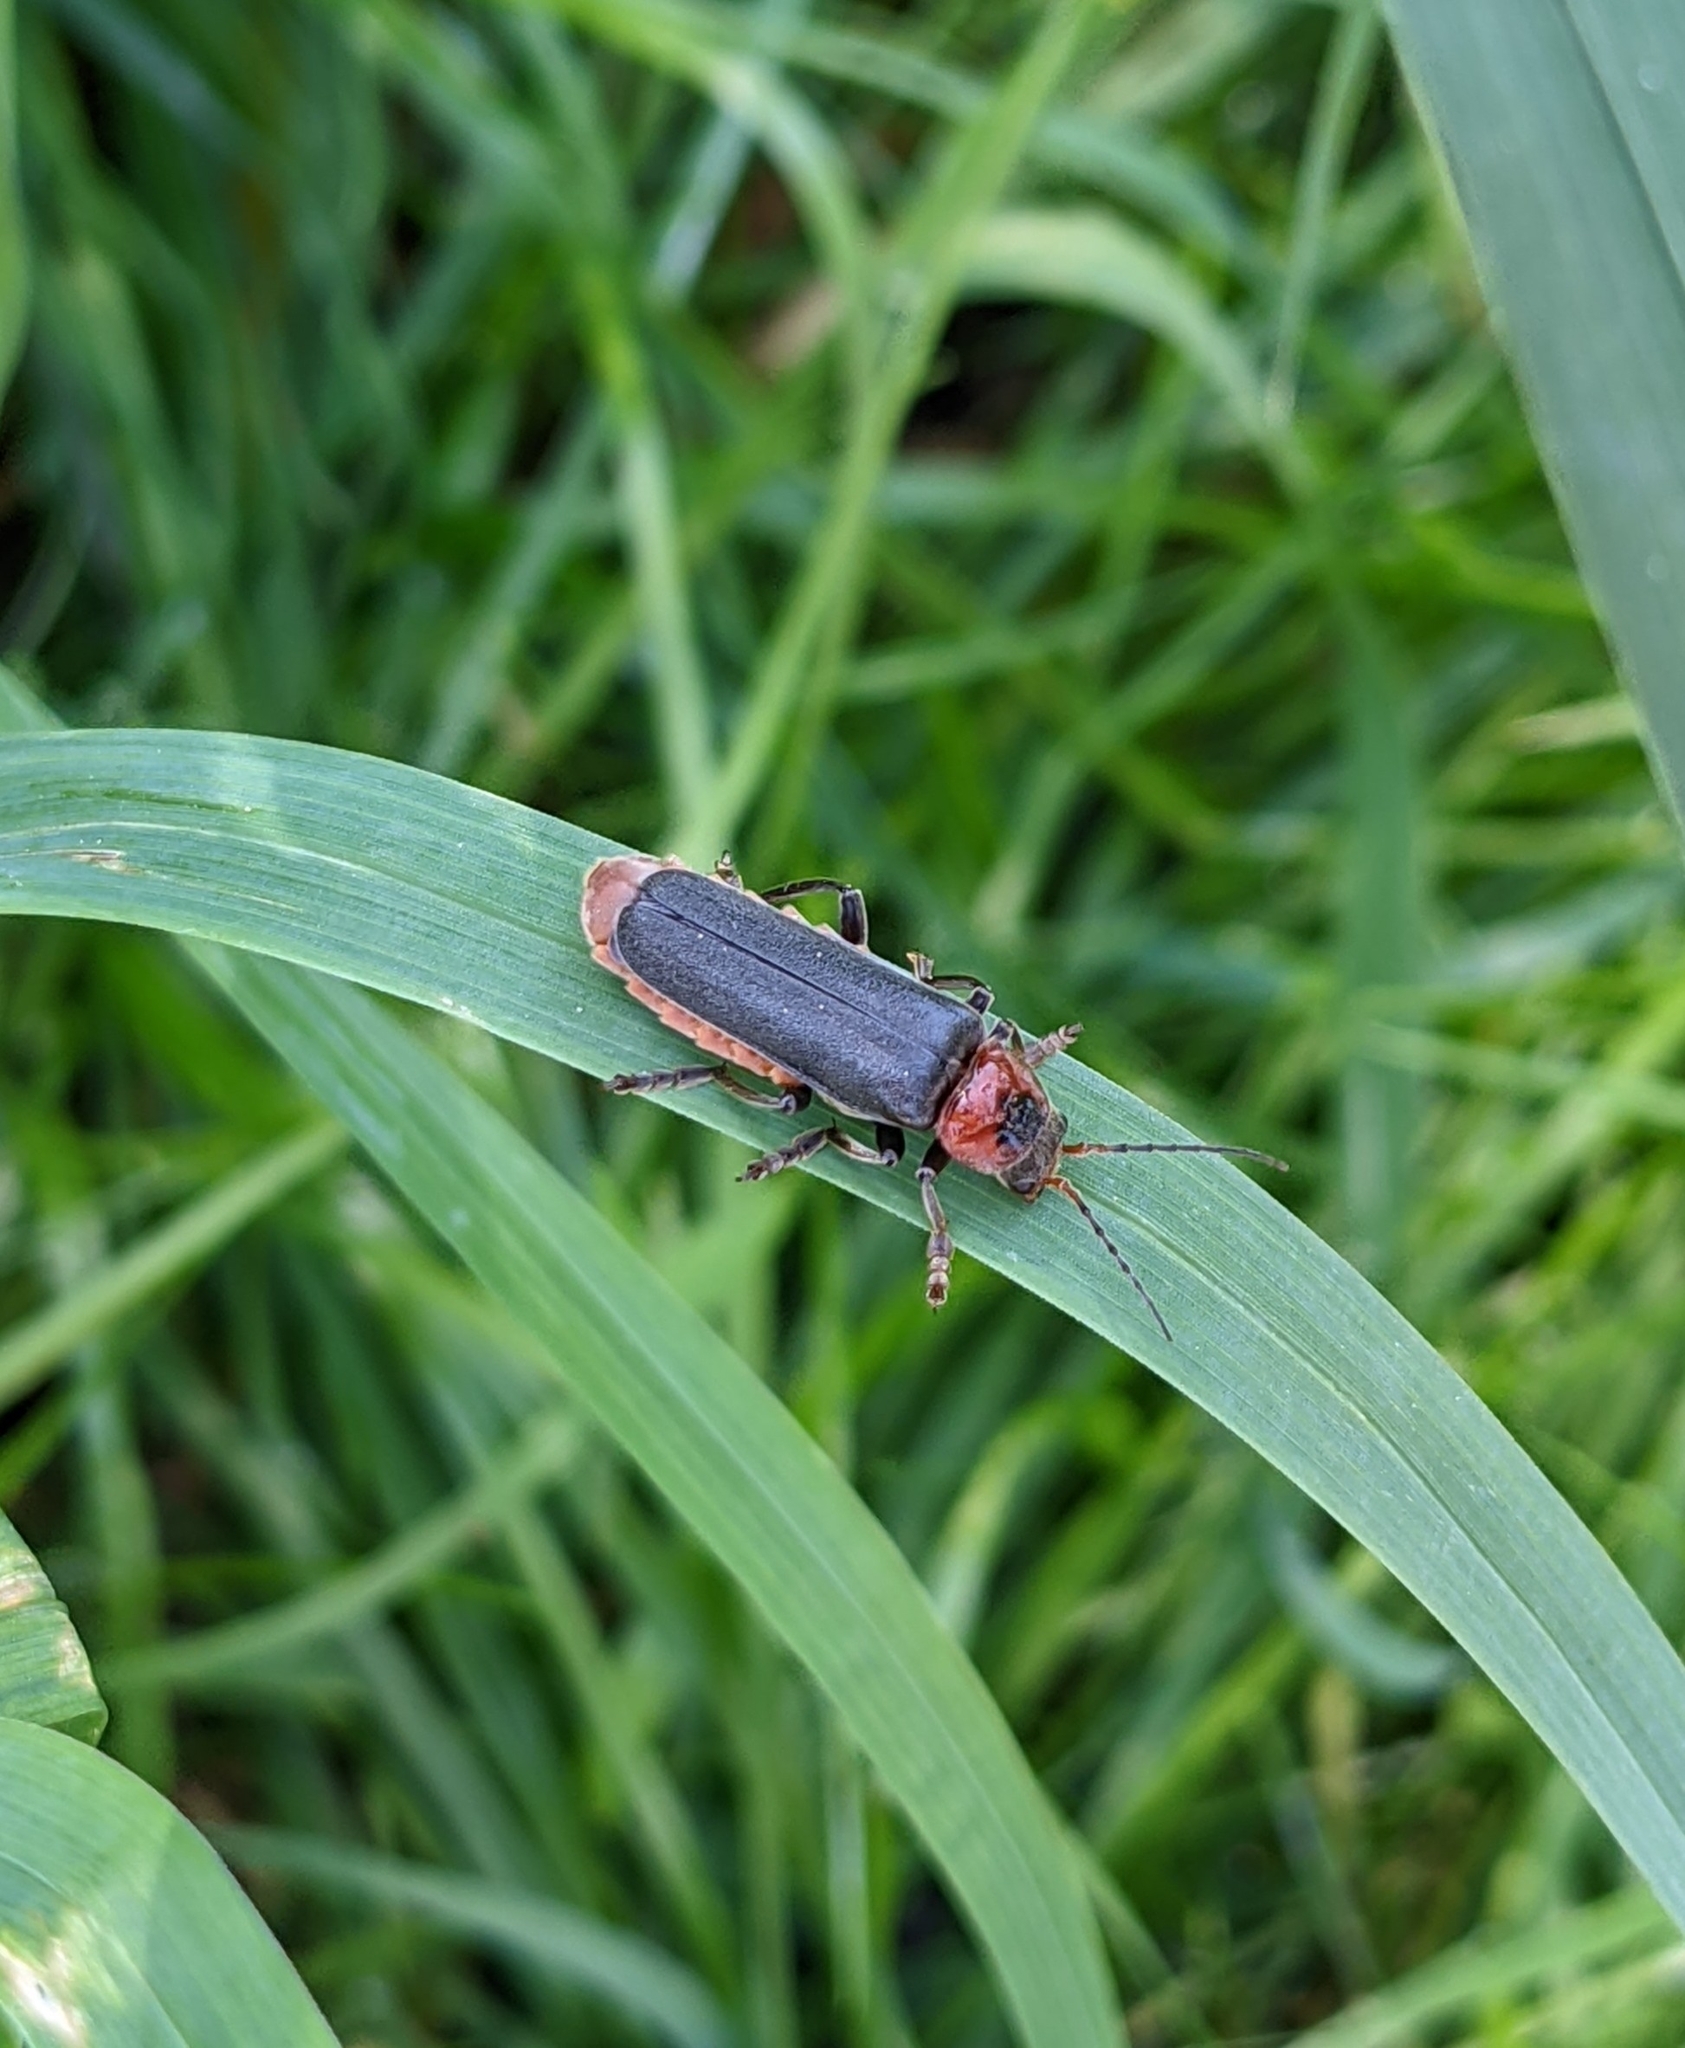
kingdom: Animalia
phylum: Arthropoda
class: Insecta
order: Coleoptera
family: Cantharidae
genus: Cantharis
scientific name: Cantharis fusca
